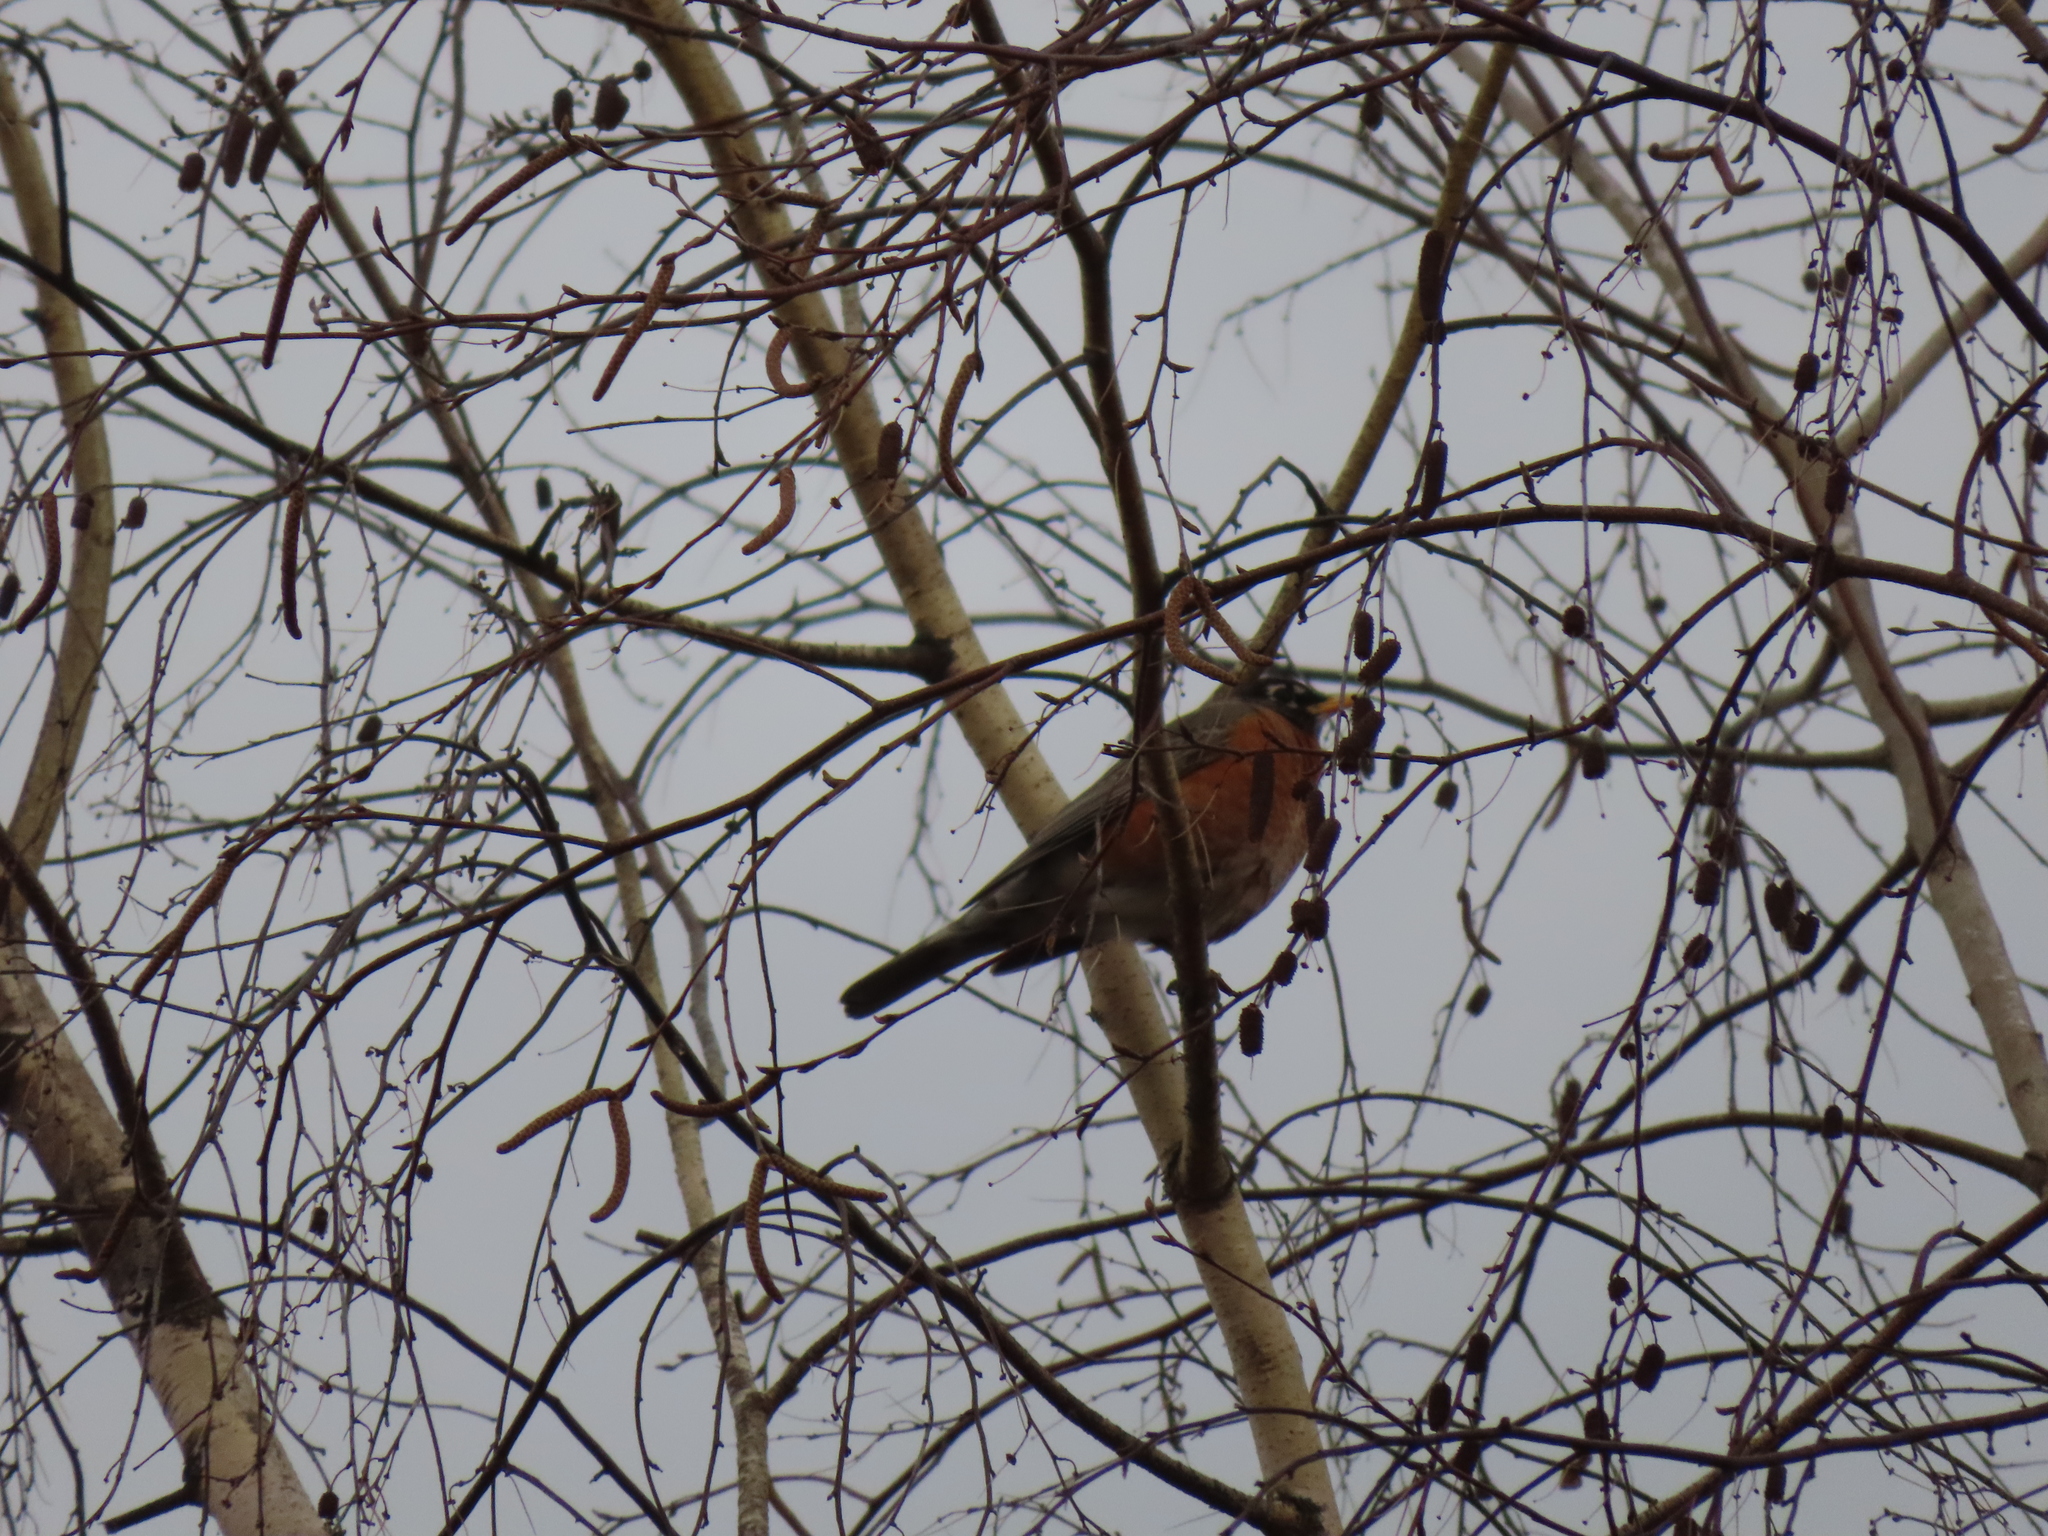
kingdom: Animalia
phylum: Chordata
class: Aves
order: Passeriformes
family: Turdidae
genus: Turdus
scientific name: Turdus migratorius
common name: American robin
